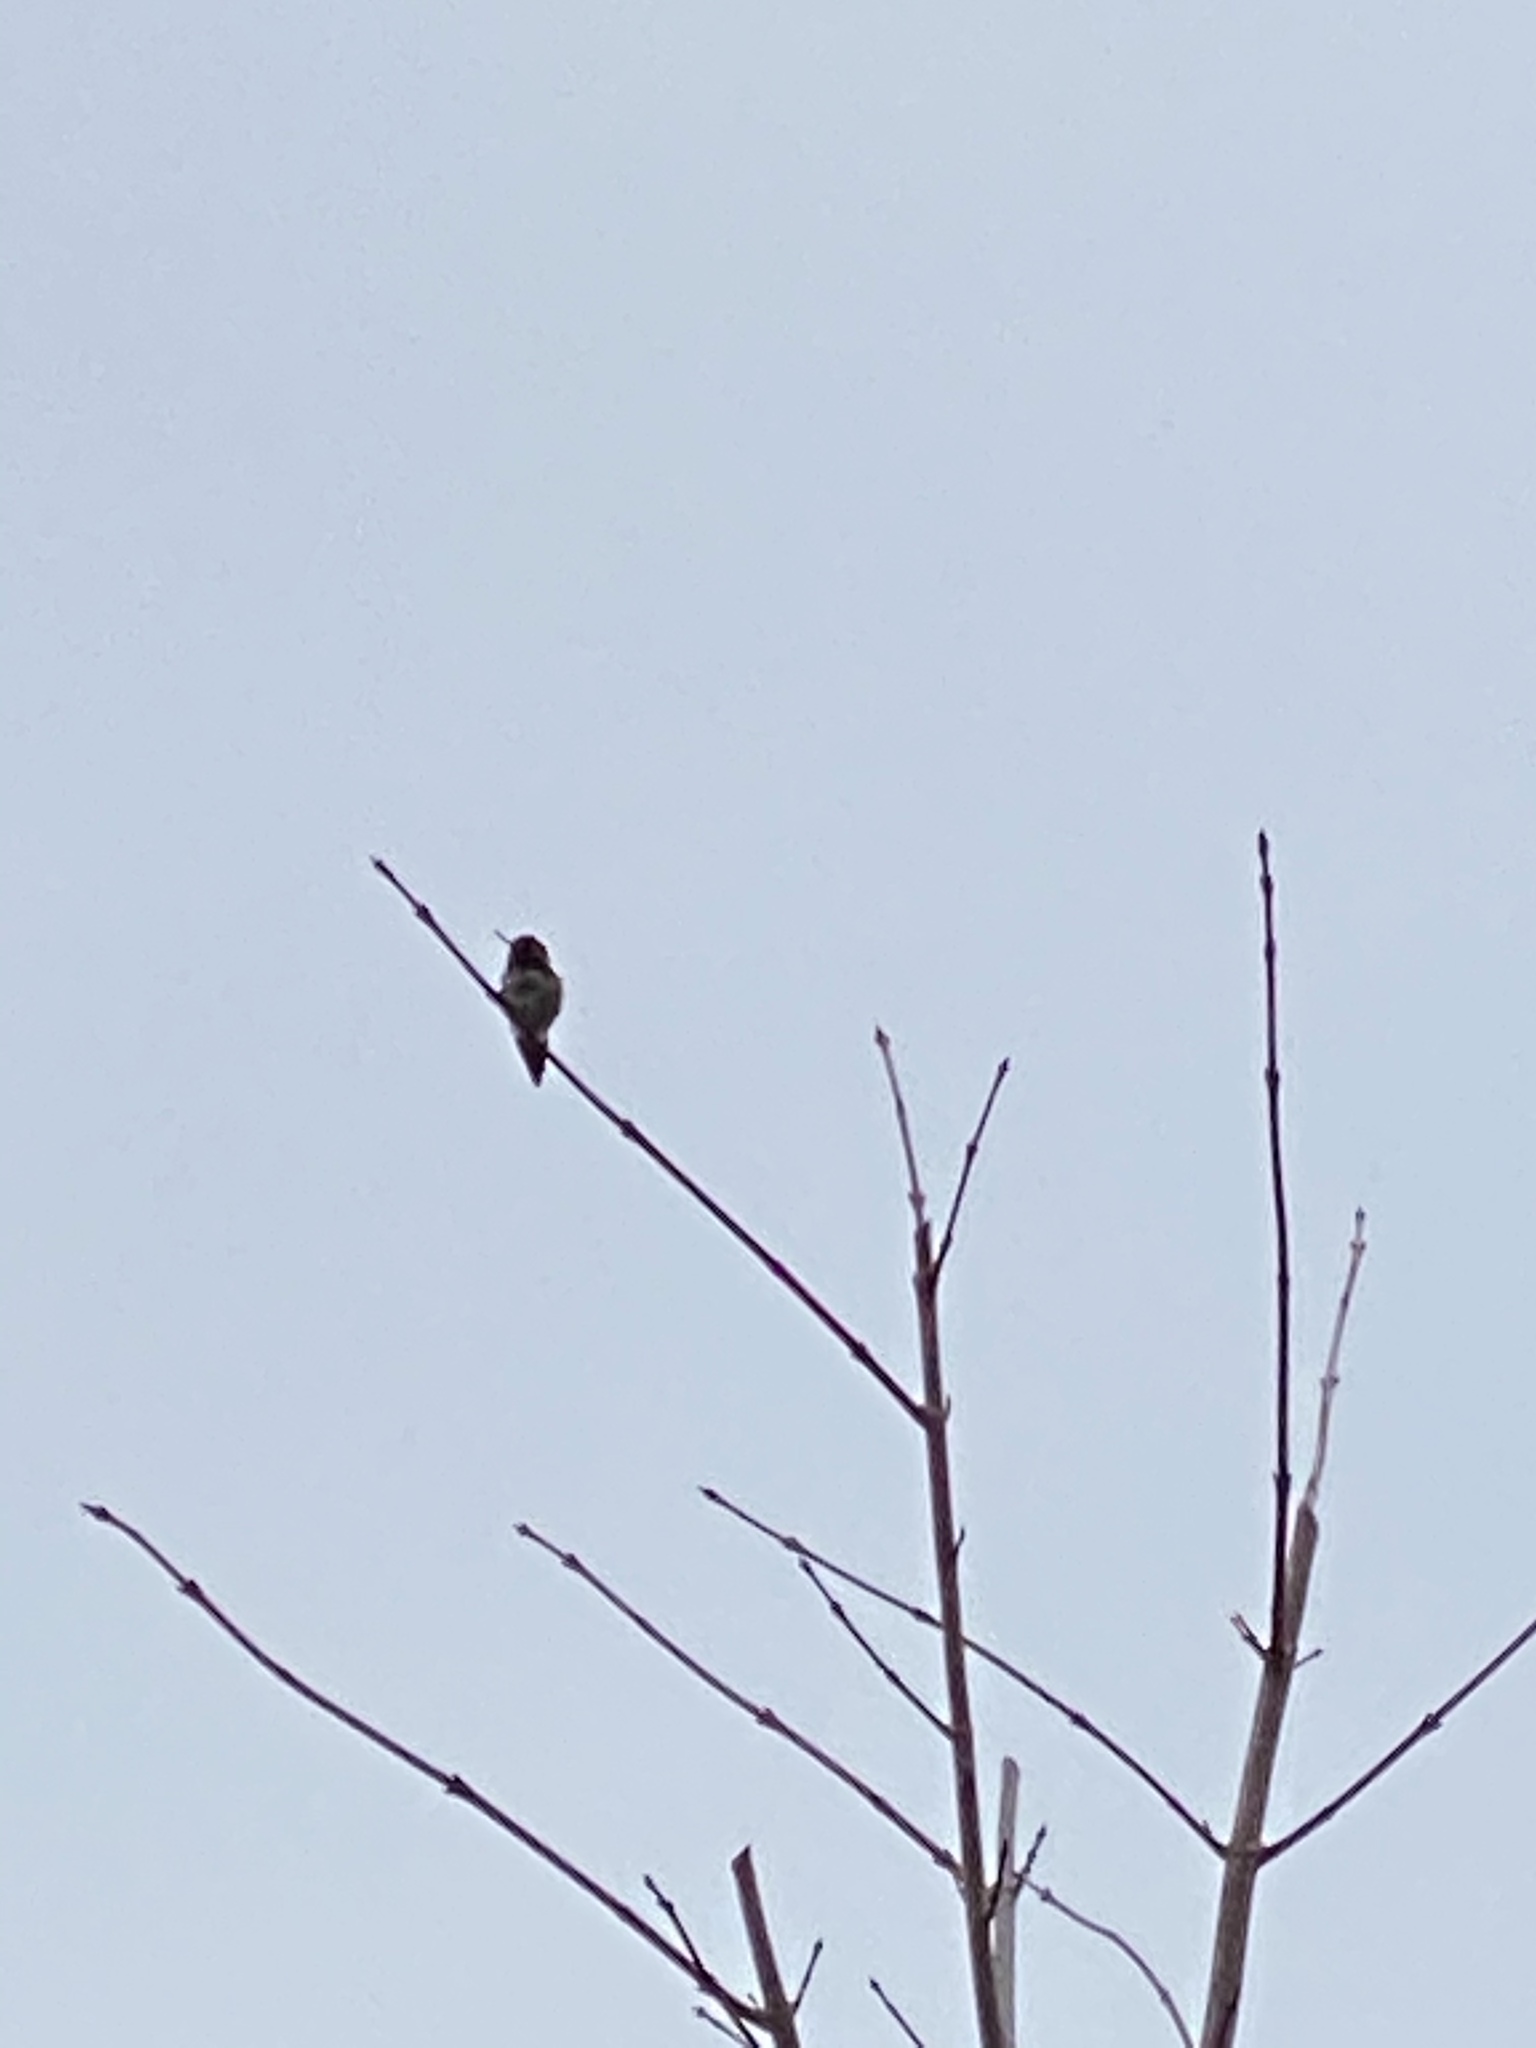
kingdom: Animalia
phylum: Chordata
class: Aves
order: Apodiformes
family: Trochilidae
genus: Calypte
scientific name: Calypte anna
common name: Anna's hummingbird
